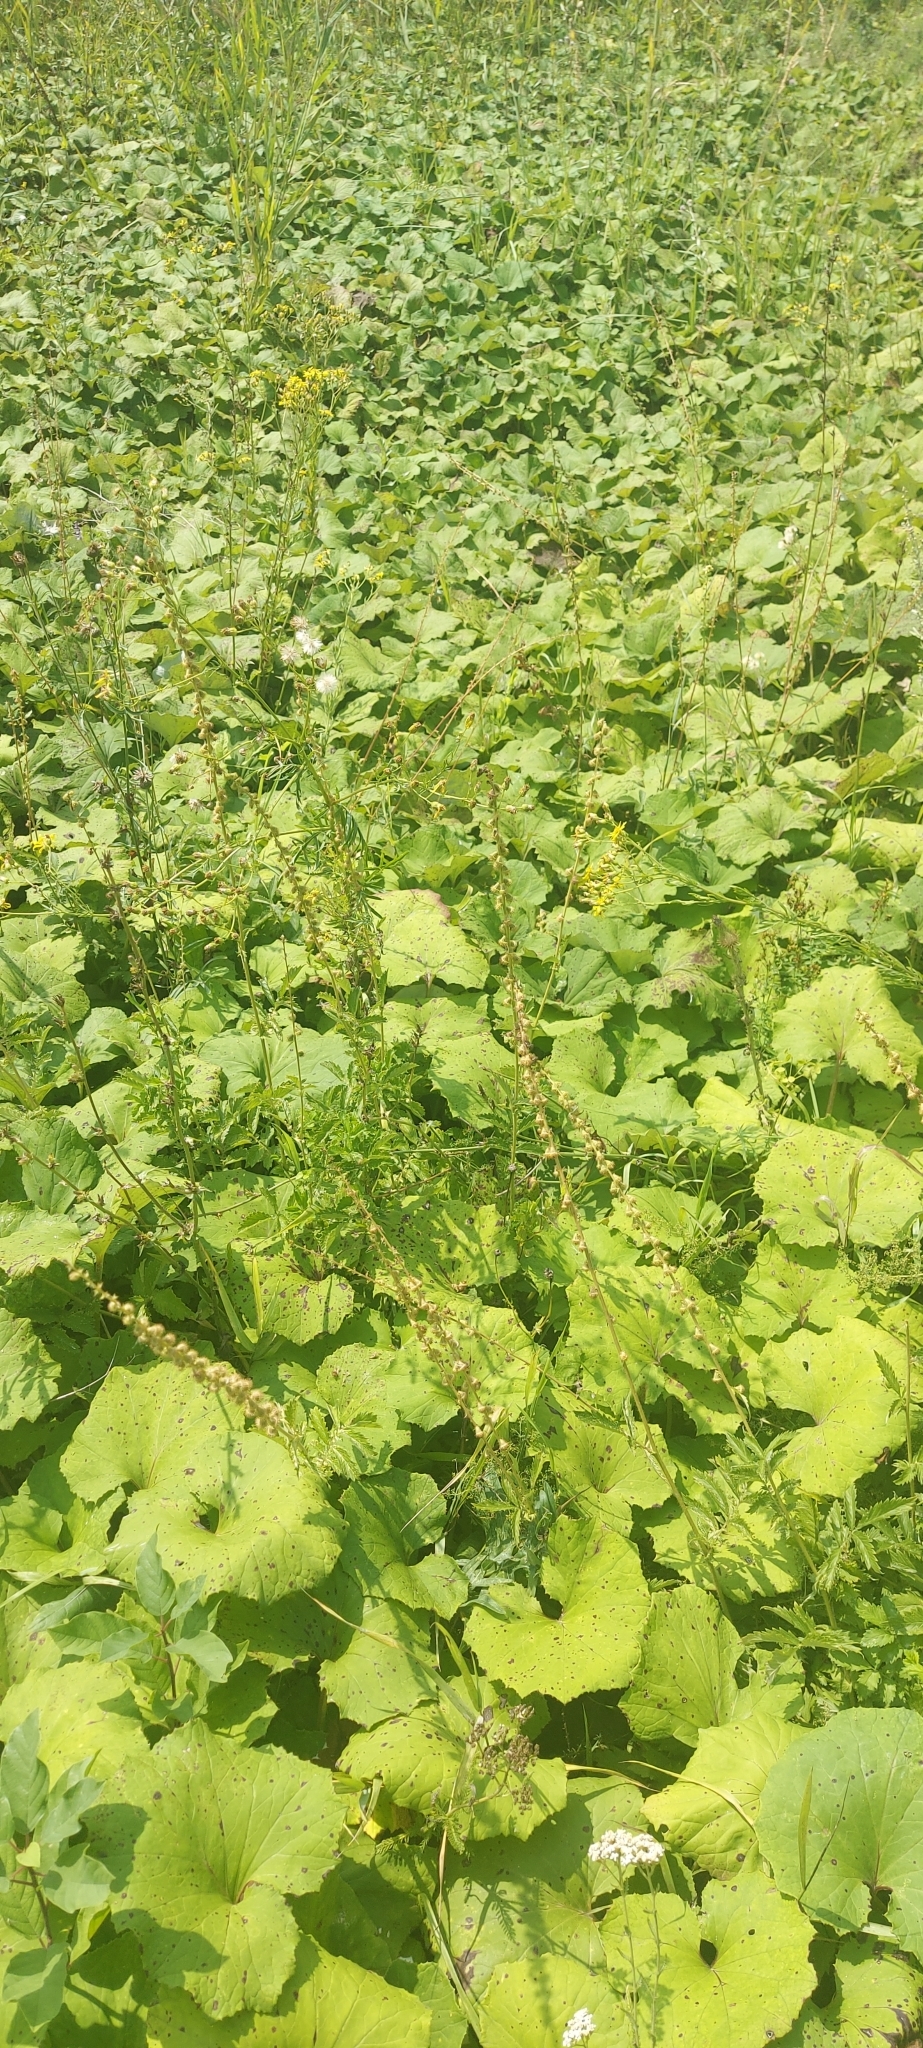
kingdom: Plantae
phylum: Tracheophyta
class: Magnoliopsida
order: Asterales
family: Asteraceae
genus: Tussilago
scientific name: Tussilago farfara
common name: Coltsfoot
